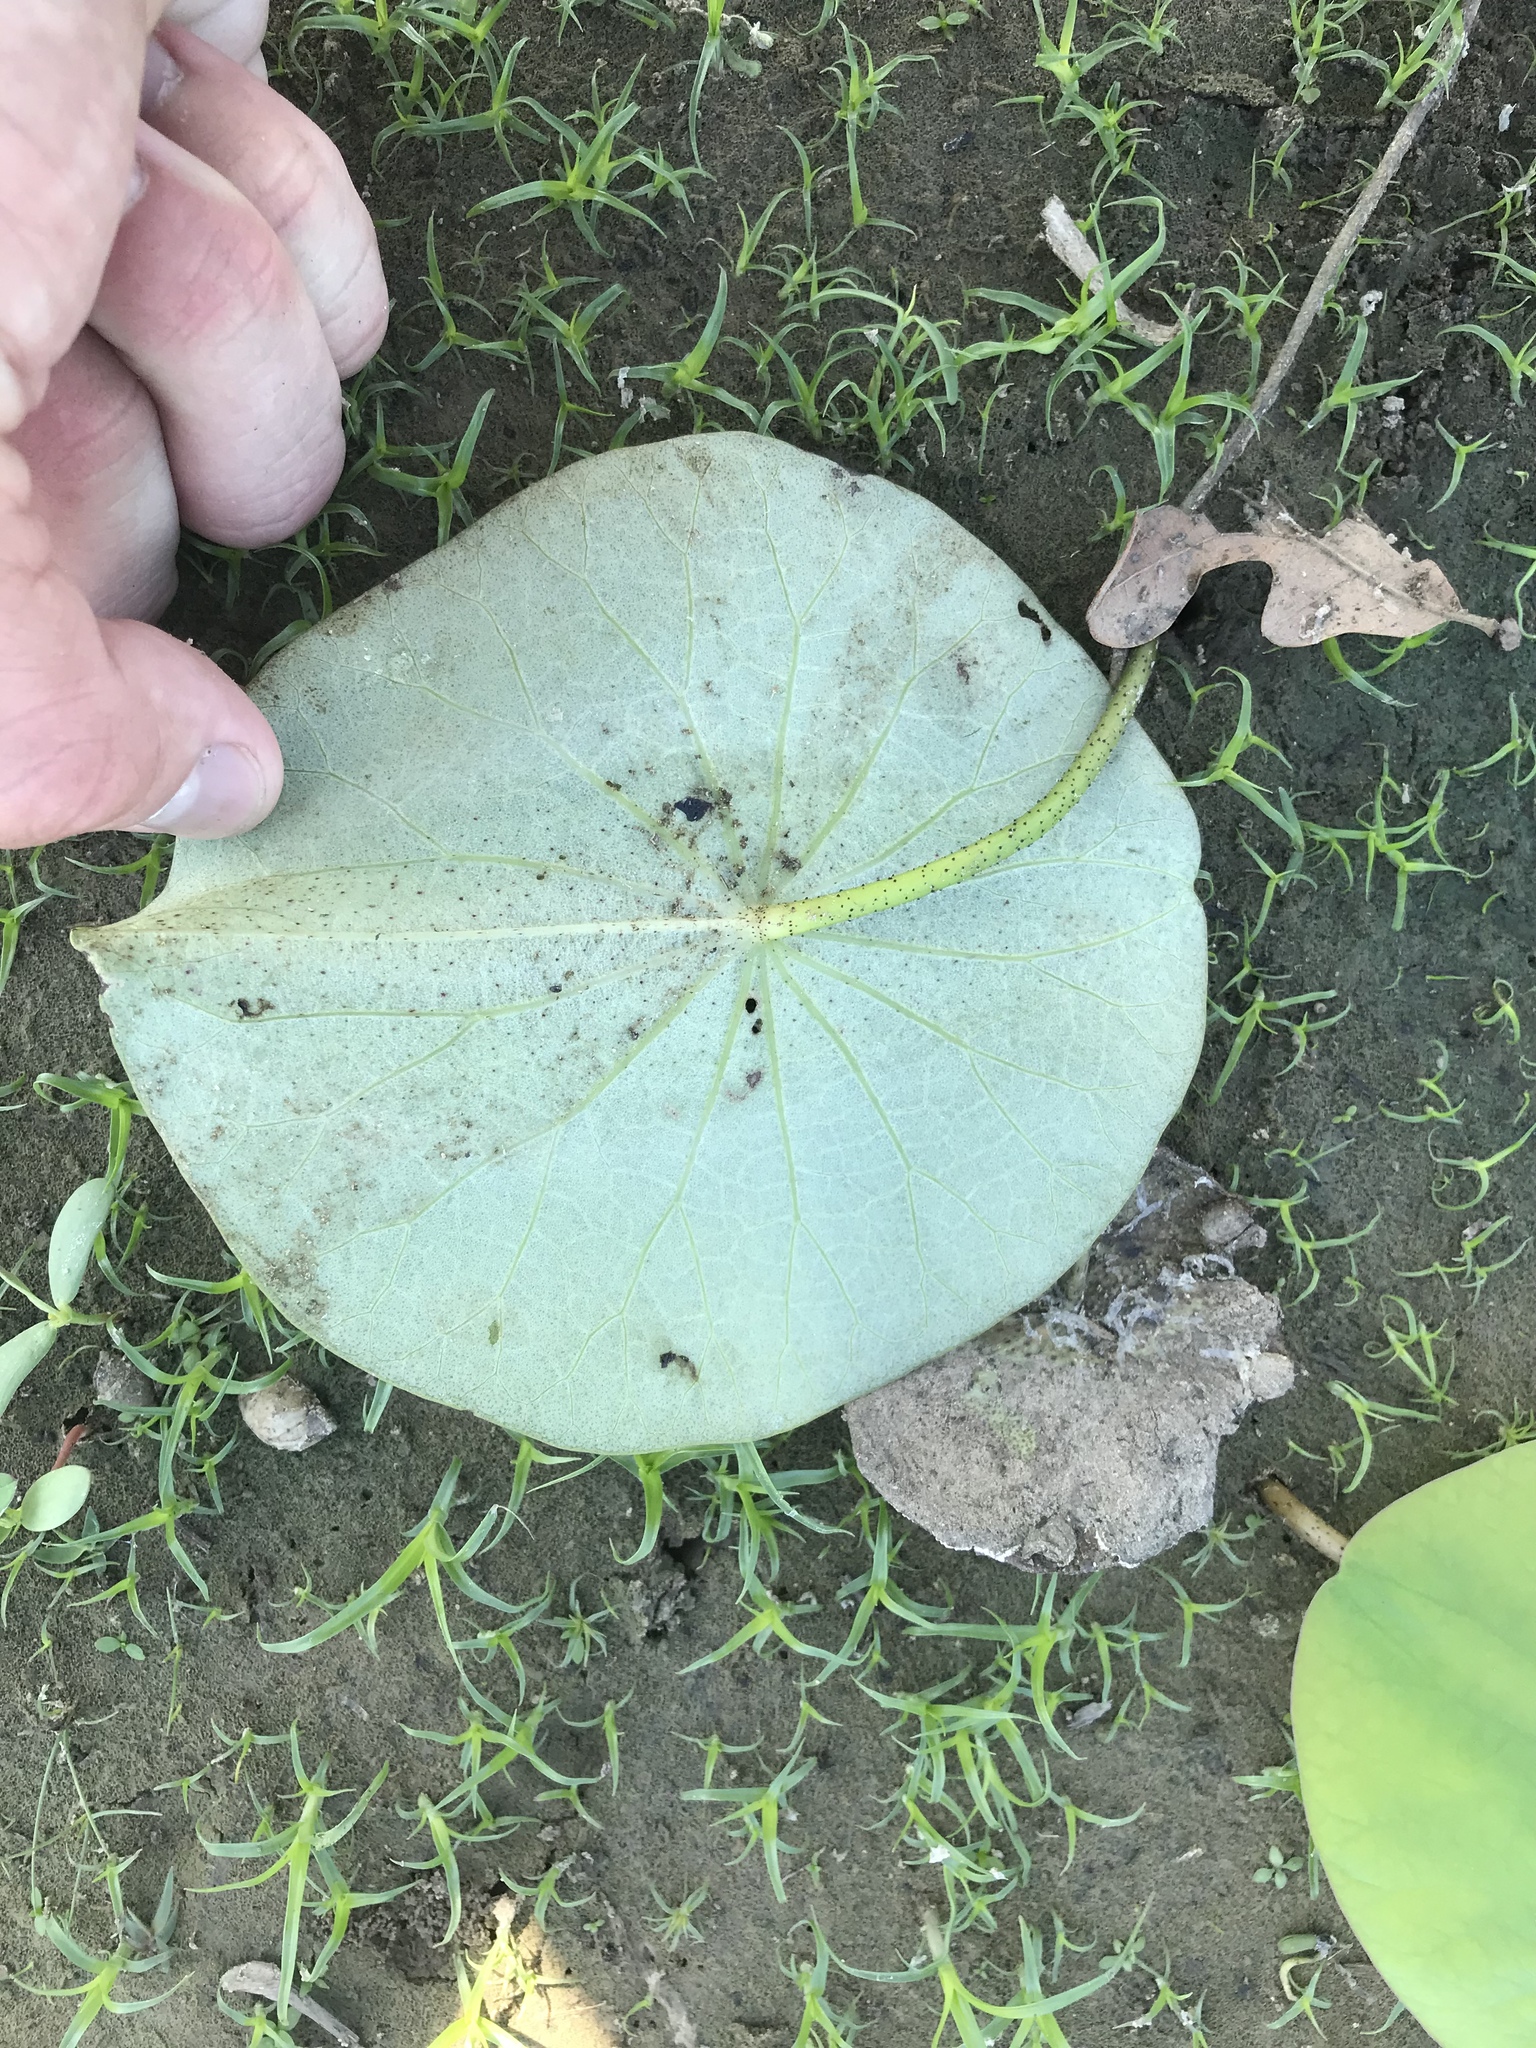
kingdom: Plantae
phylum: Tracheophyta
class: Magnoliopsida
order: Proteales
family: Nelumbonaceae
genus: Nelumbo
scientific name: Nelumbo lutea
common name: American lotus
